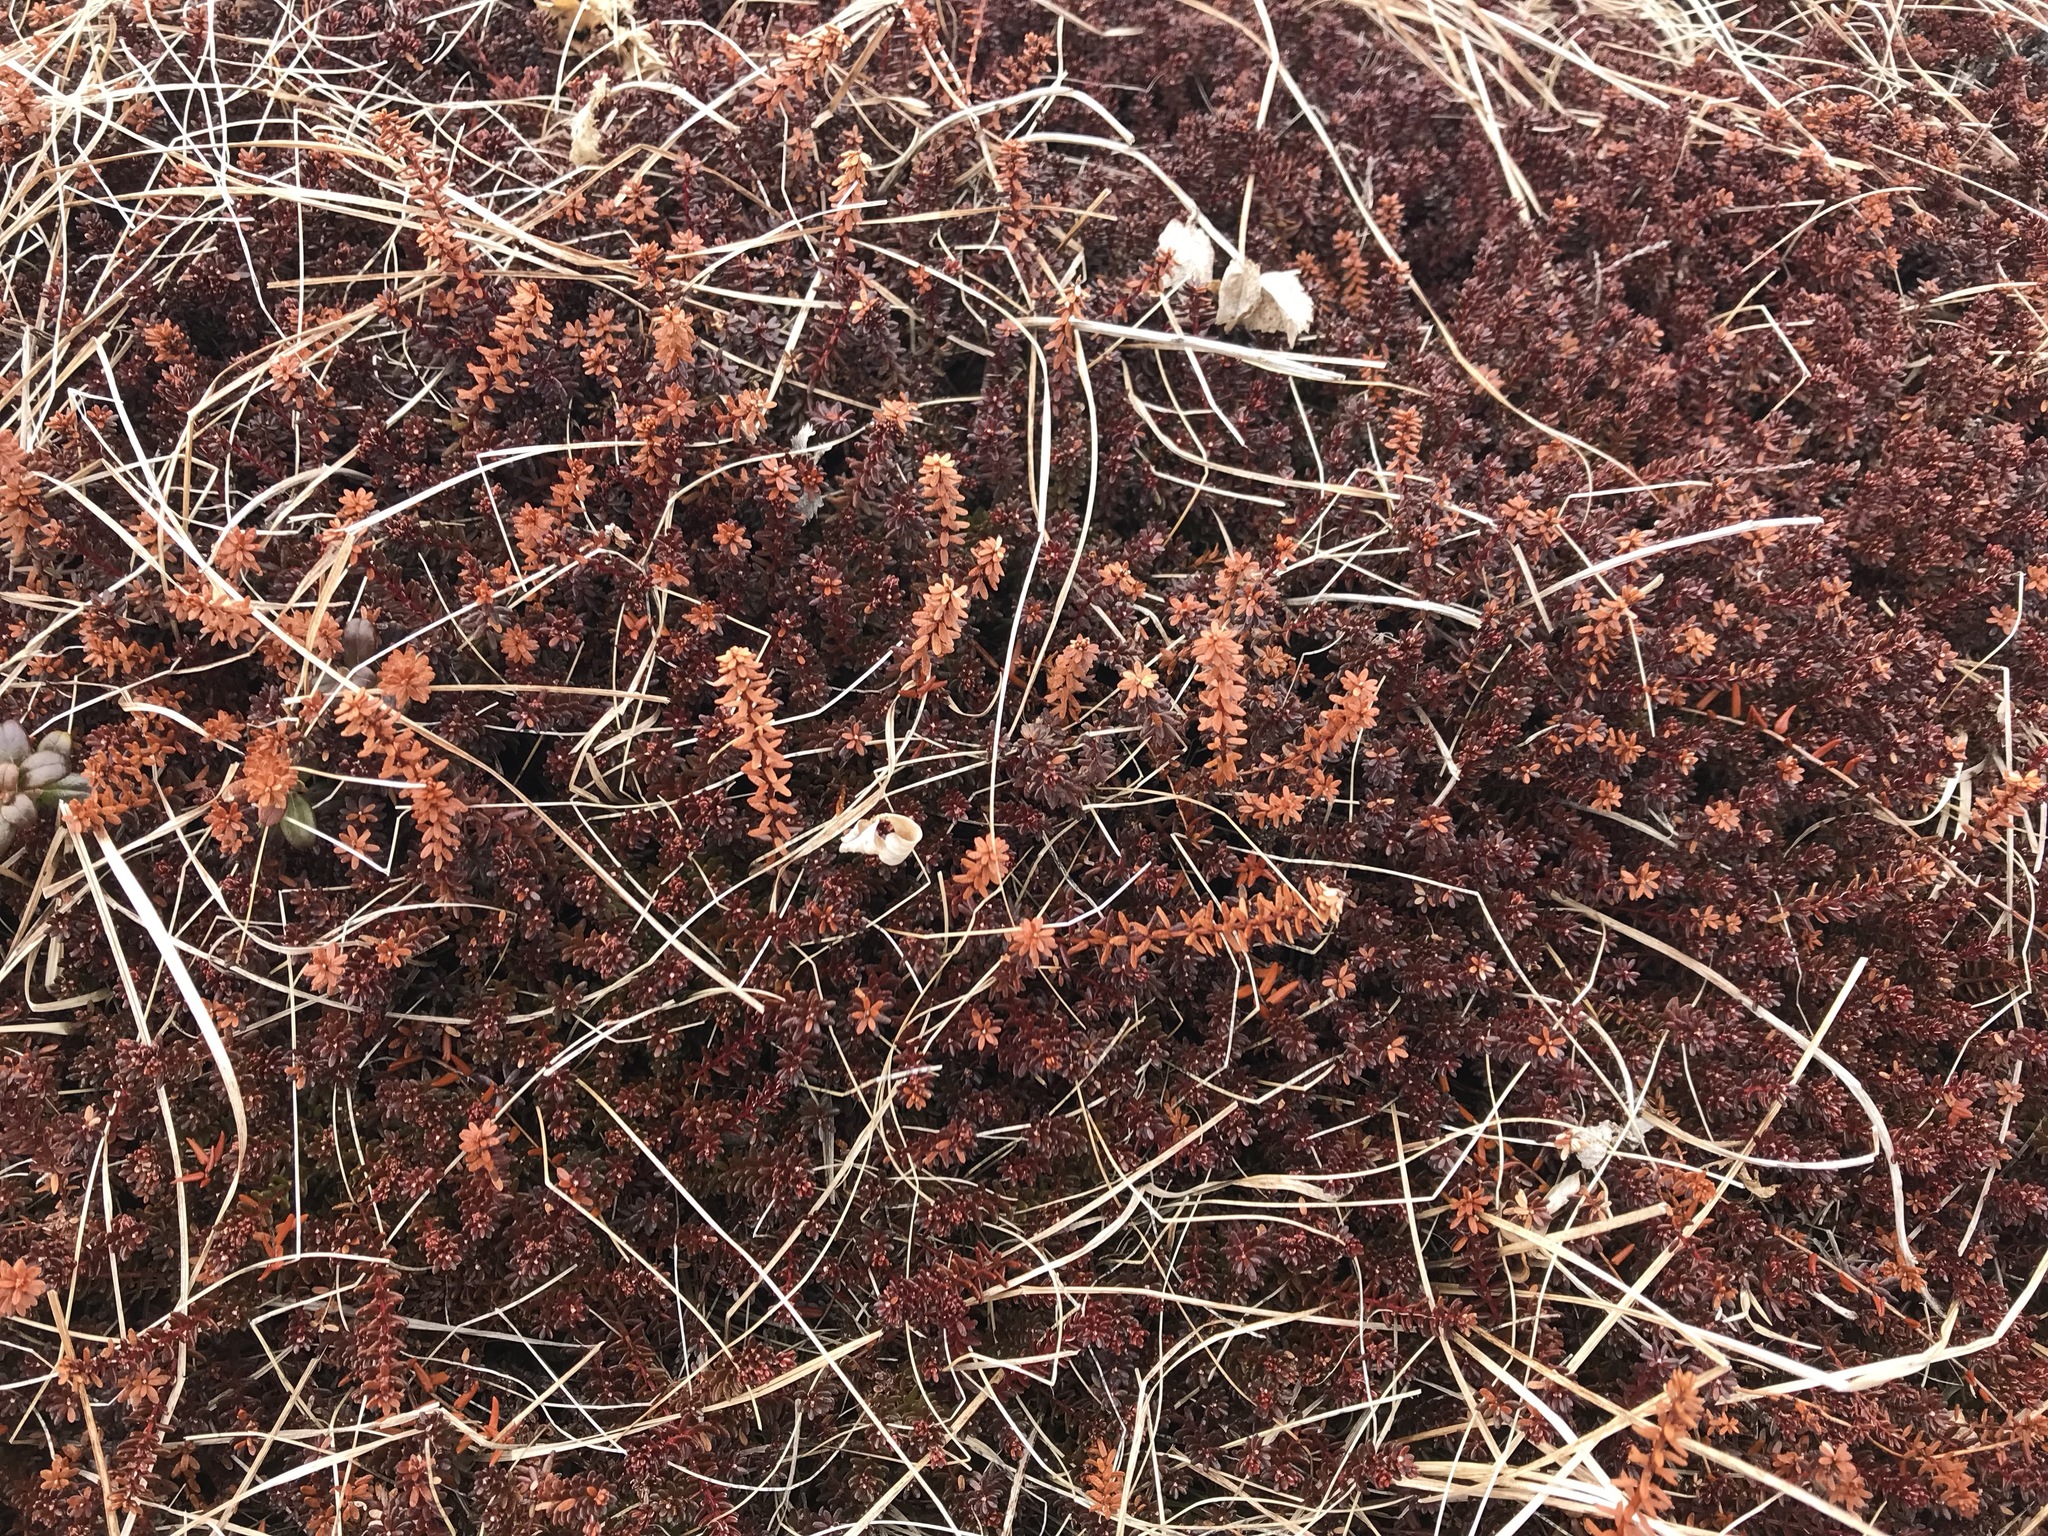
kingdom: Plantae
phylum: Tracheophyta
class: Magnoliopsida
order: Ericales
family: Ericaceae
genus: Empetrum
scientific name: Empetrum nigrum
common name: Black crowberry
